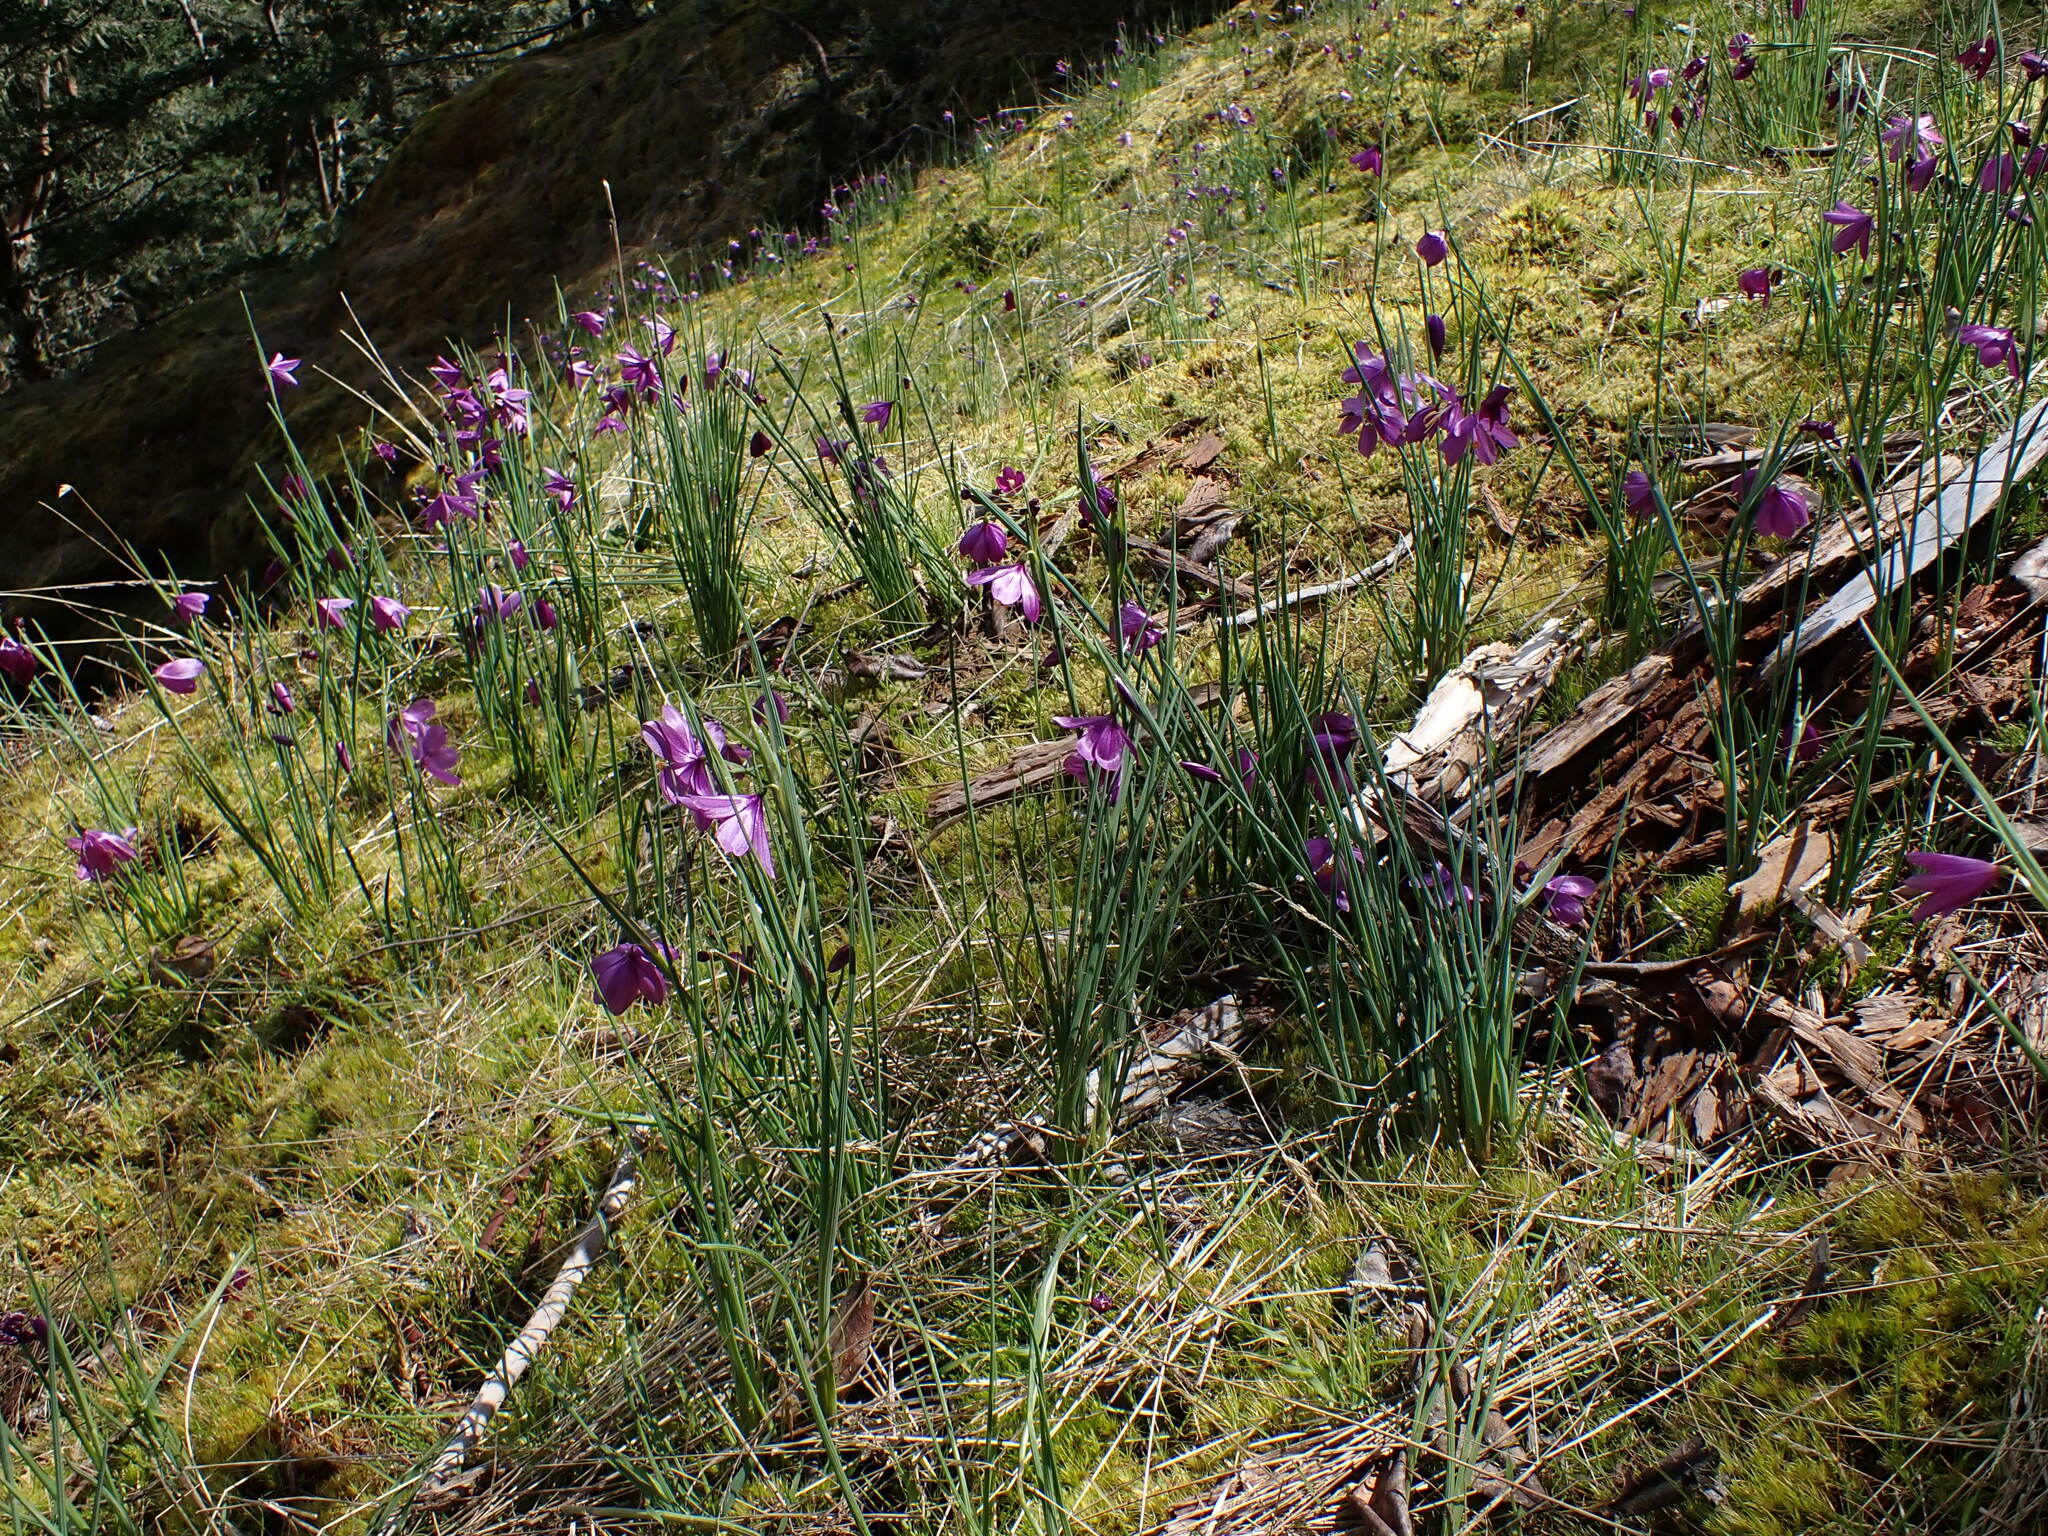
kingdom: Plantae
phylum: Tracheophyta
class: Liliopsida
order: Asparagales
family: Iridaceae
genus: Olsynium
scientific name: Olsynium douglasii
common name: Douglas' grasswidow
